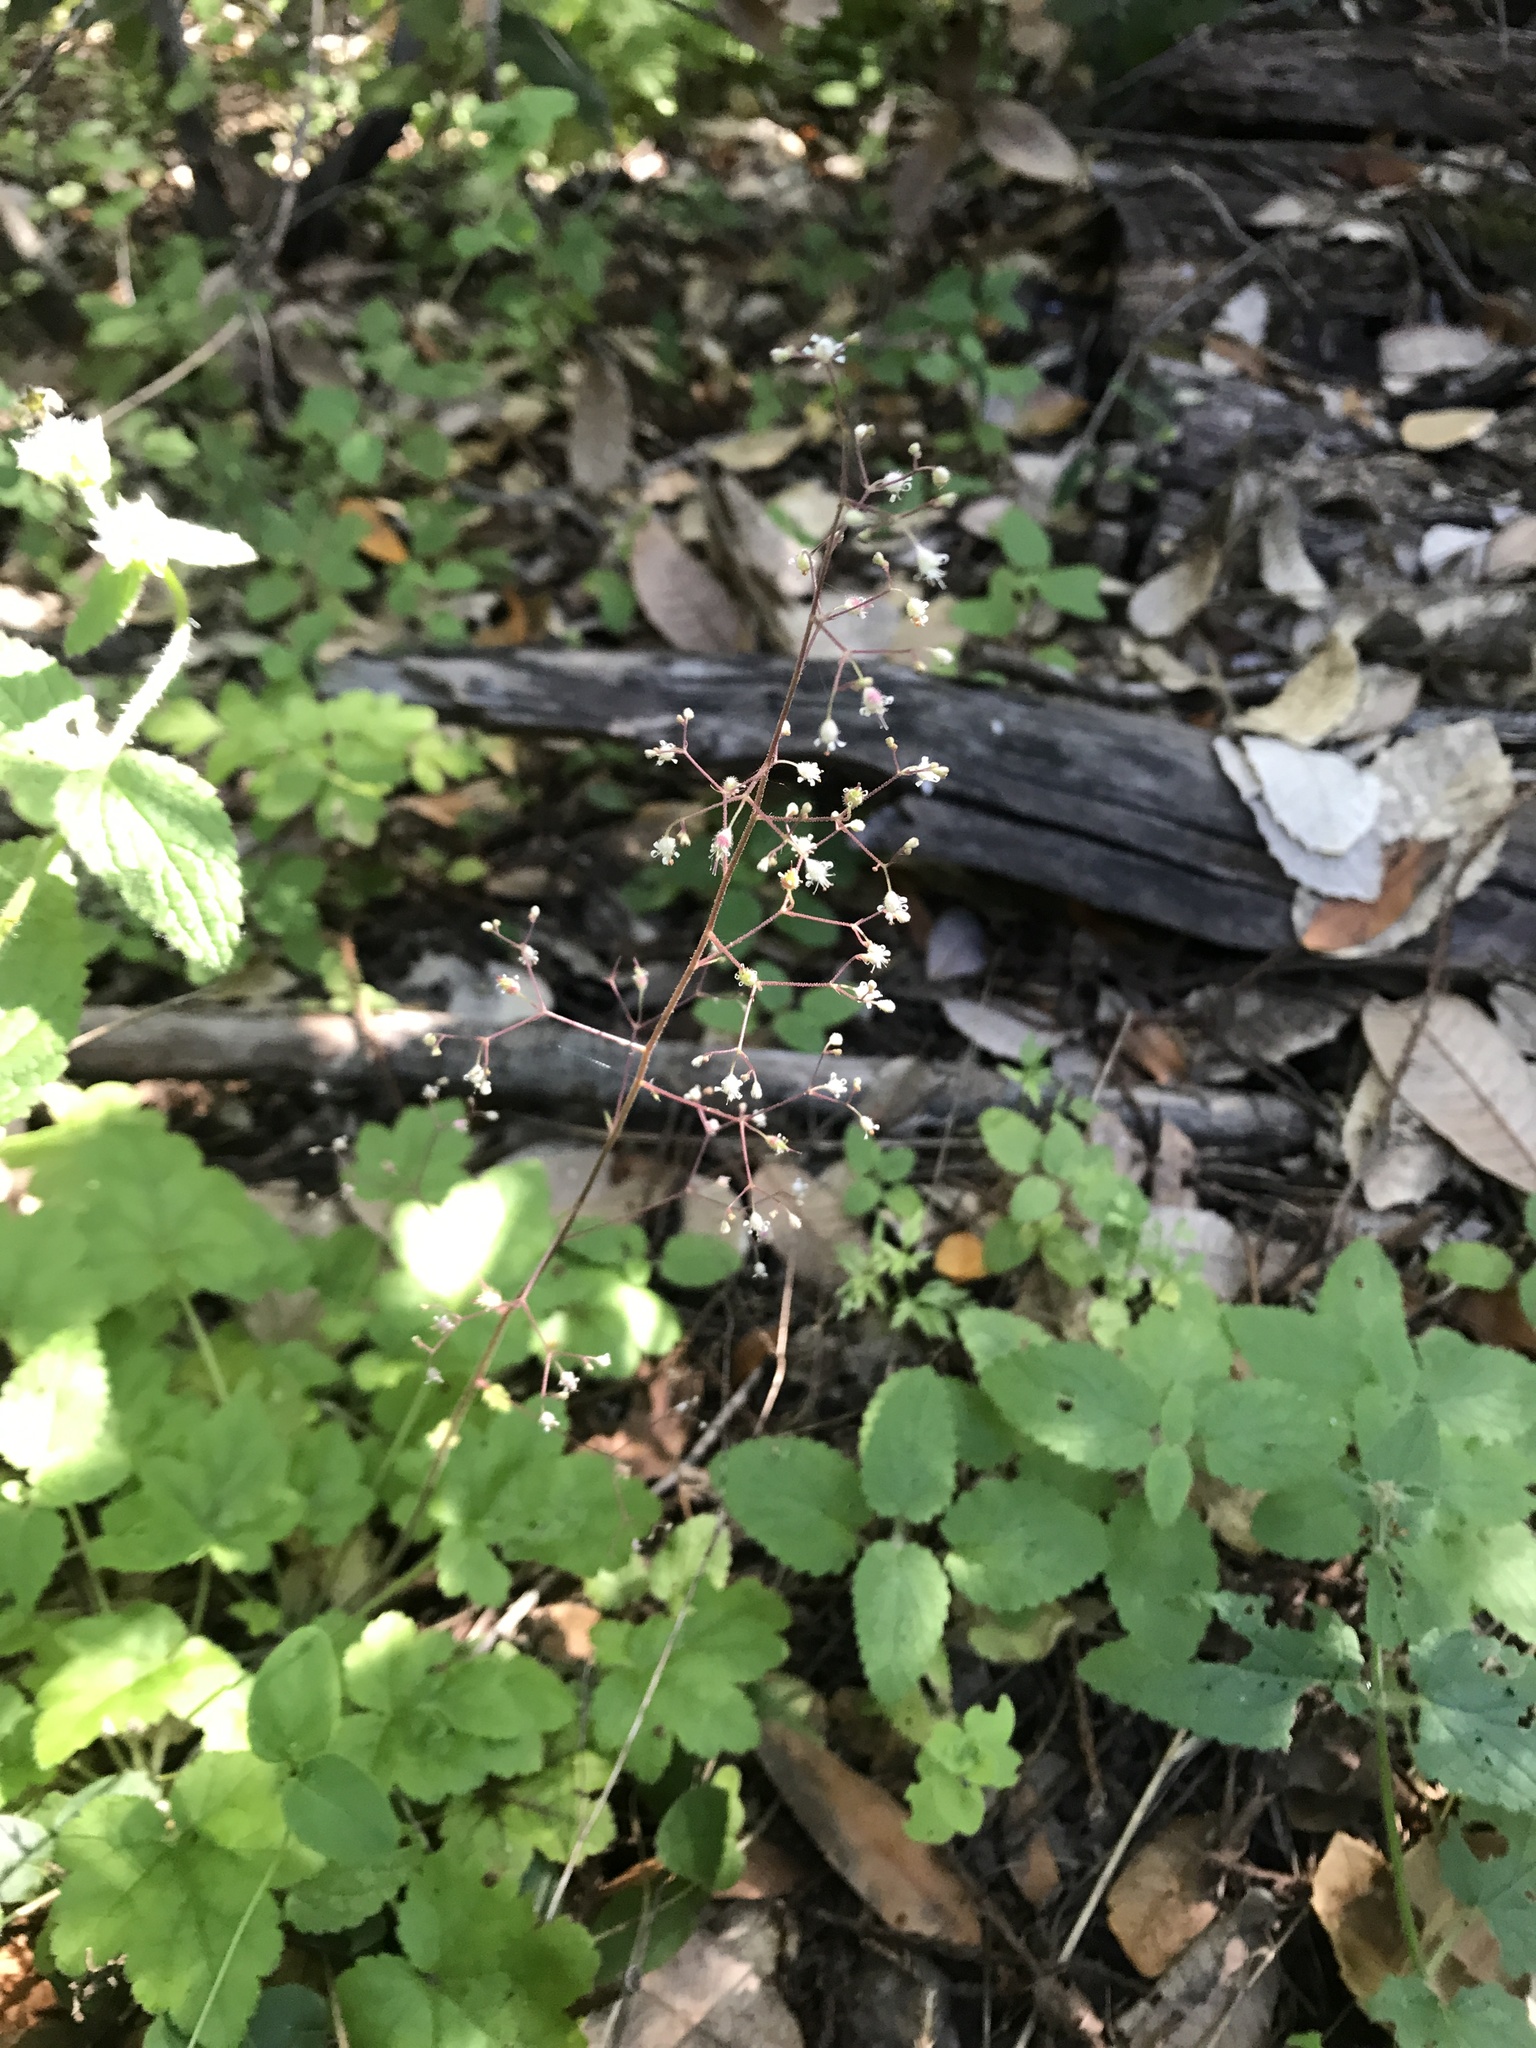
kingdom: Plantae
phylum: Tracheophyta
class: Magnoliopsida
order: Saxifragales
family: Saxifragaceae
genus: Heuchera
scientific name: Heuchera micrantha
